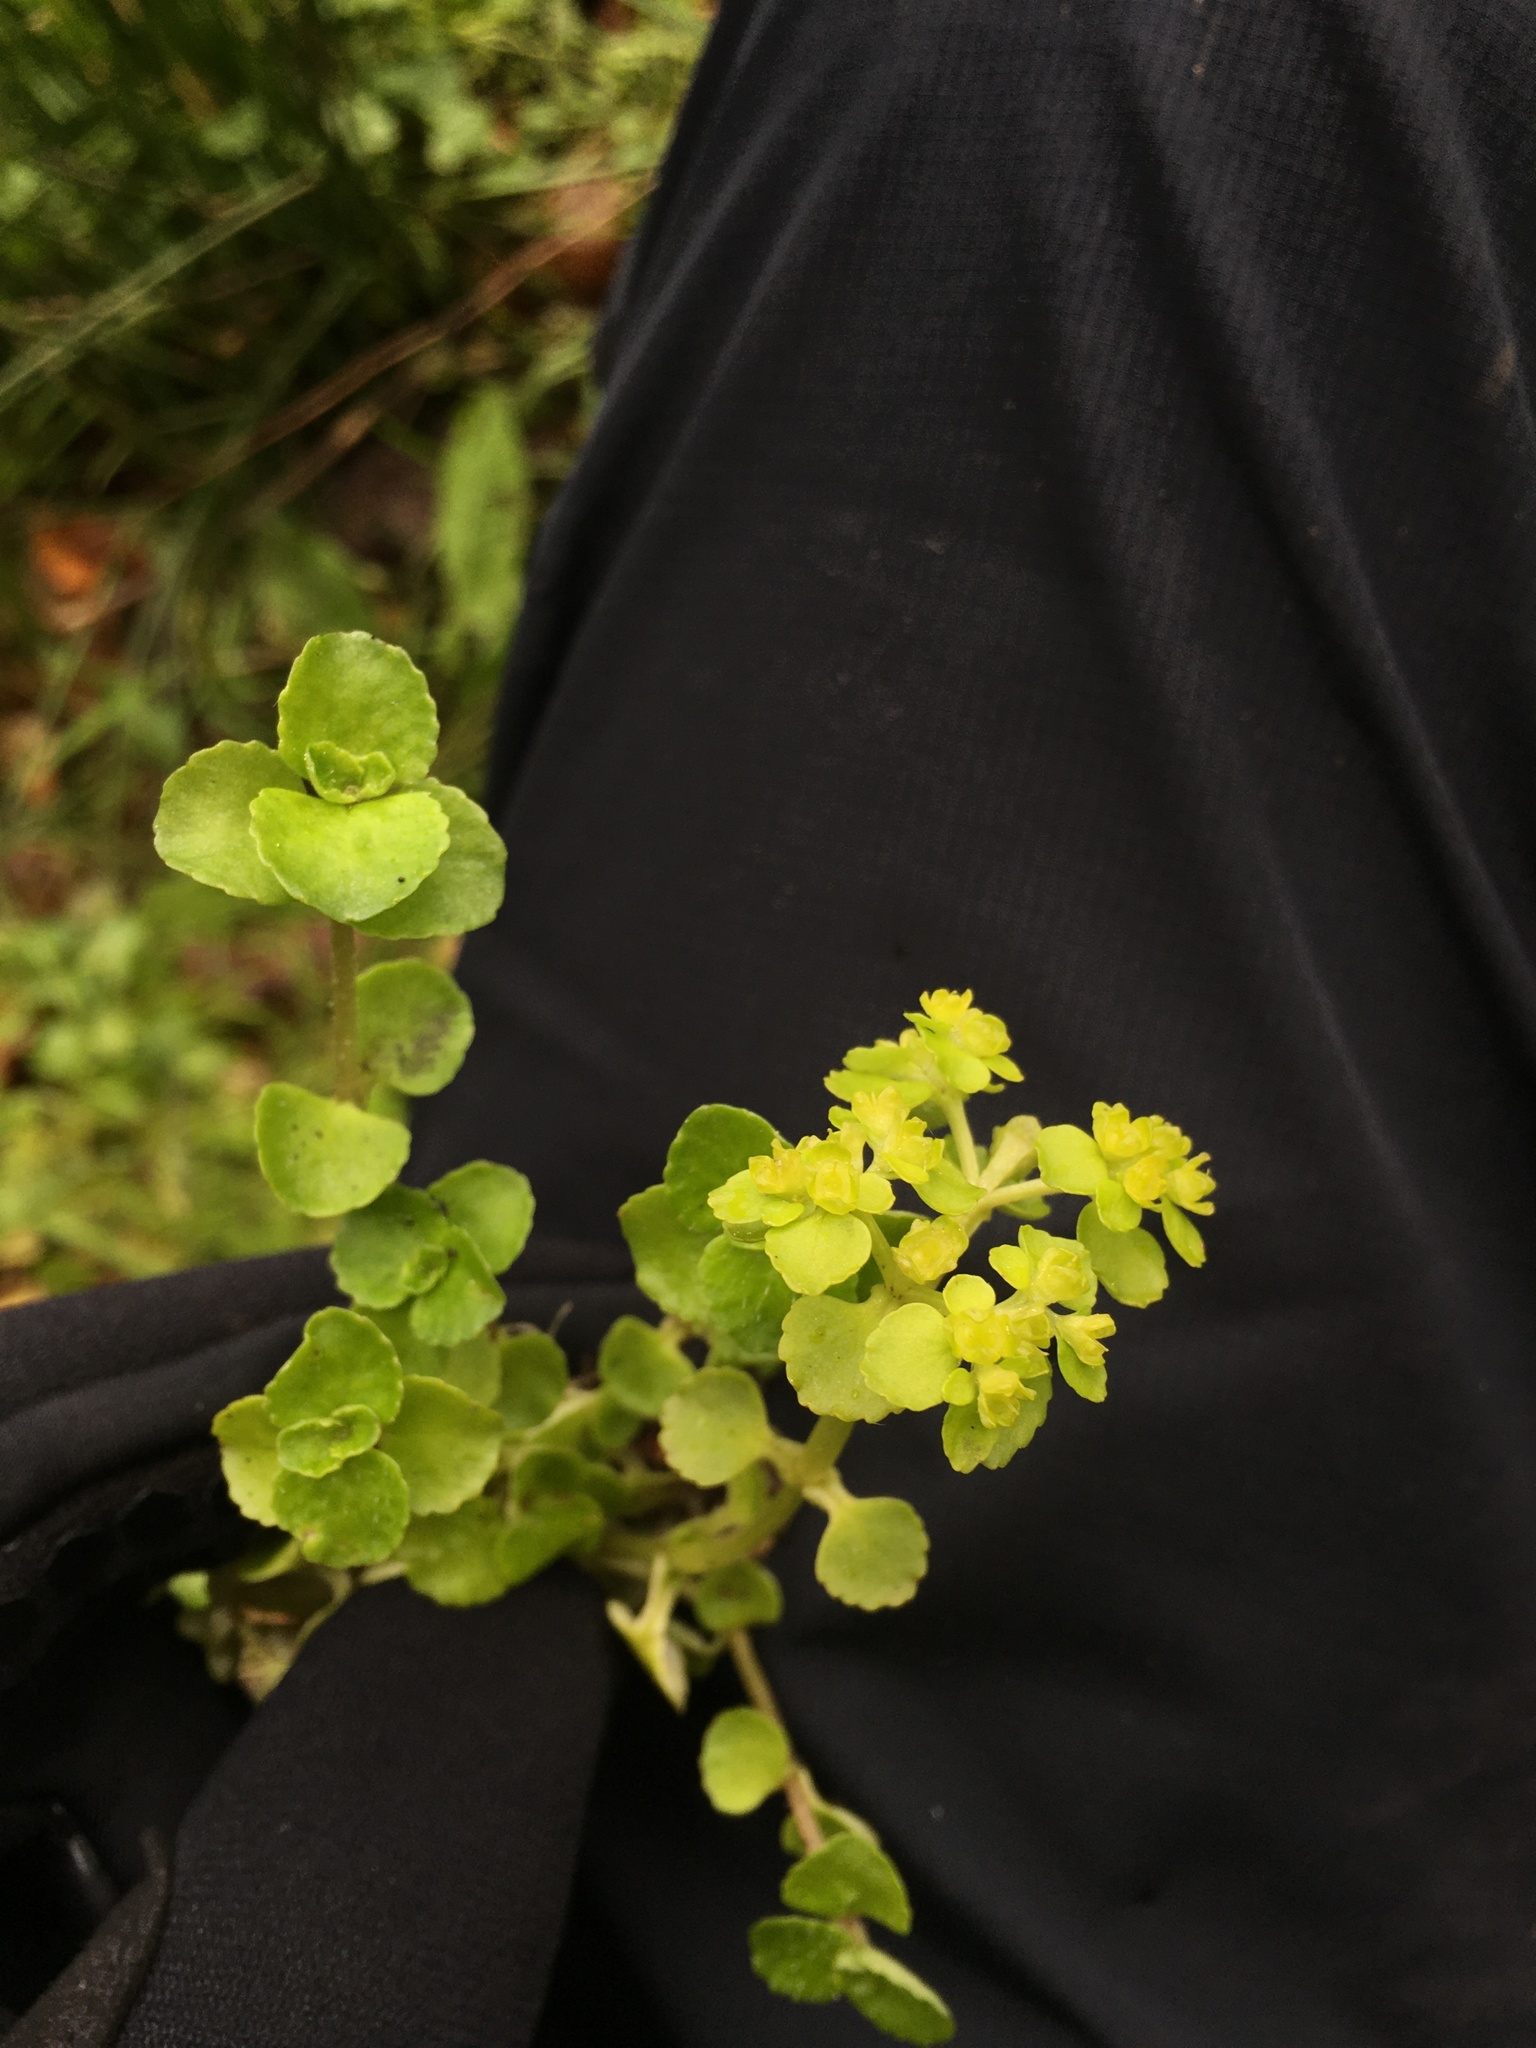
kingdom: Plantae
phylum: Tracheophyta
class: Magnoliopsida
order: Saxifragales
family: Saxifragaceae
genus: Chrysosplenium
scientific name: Chrysosplenium oppositifolium
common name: Opposite-leaved golden-saxifrage
